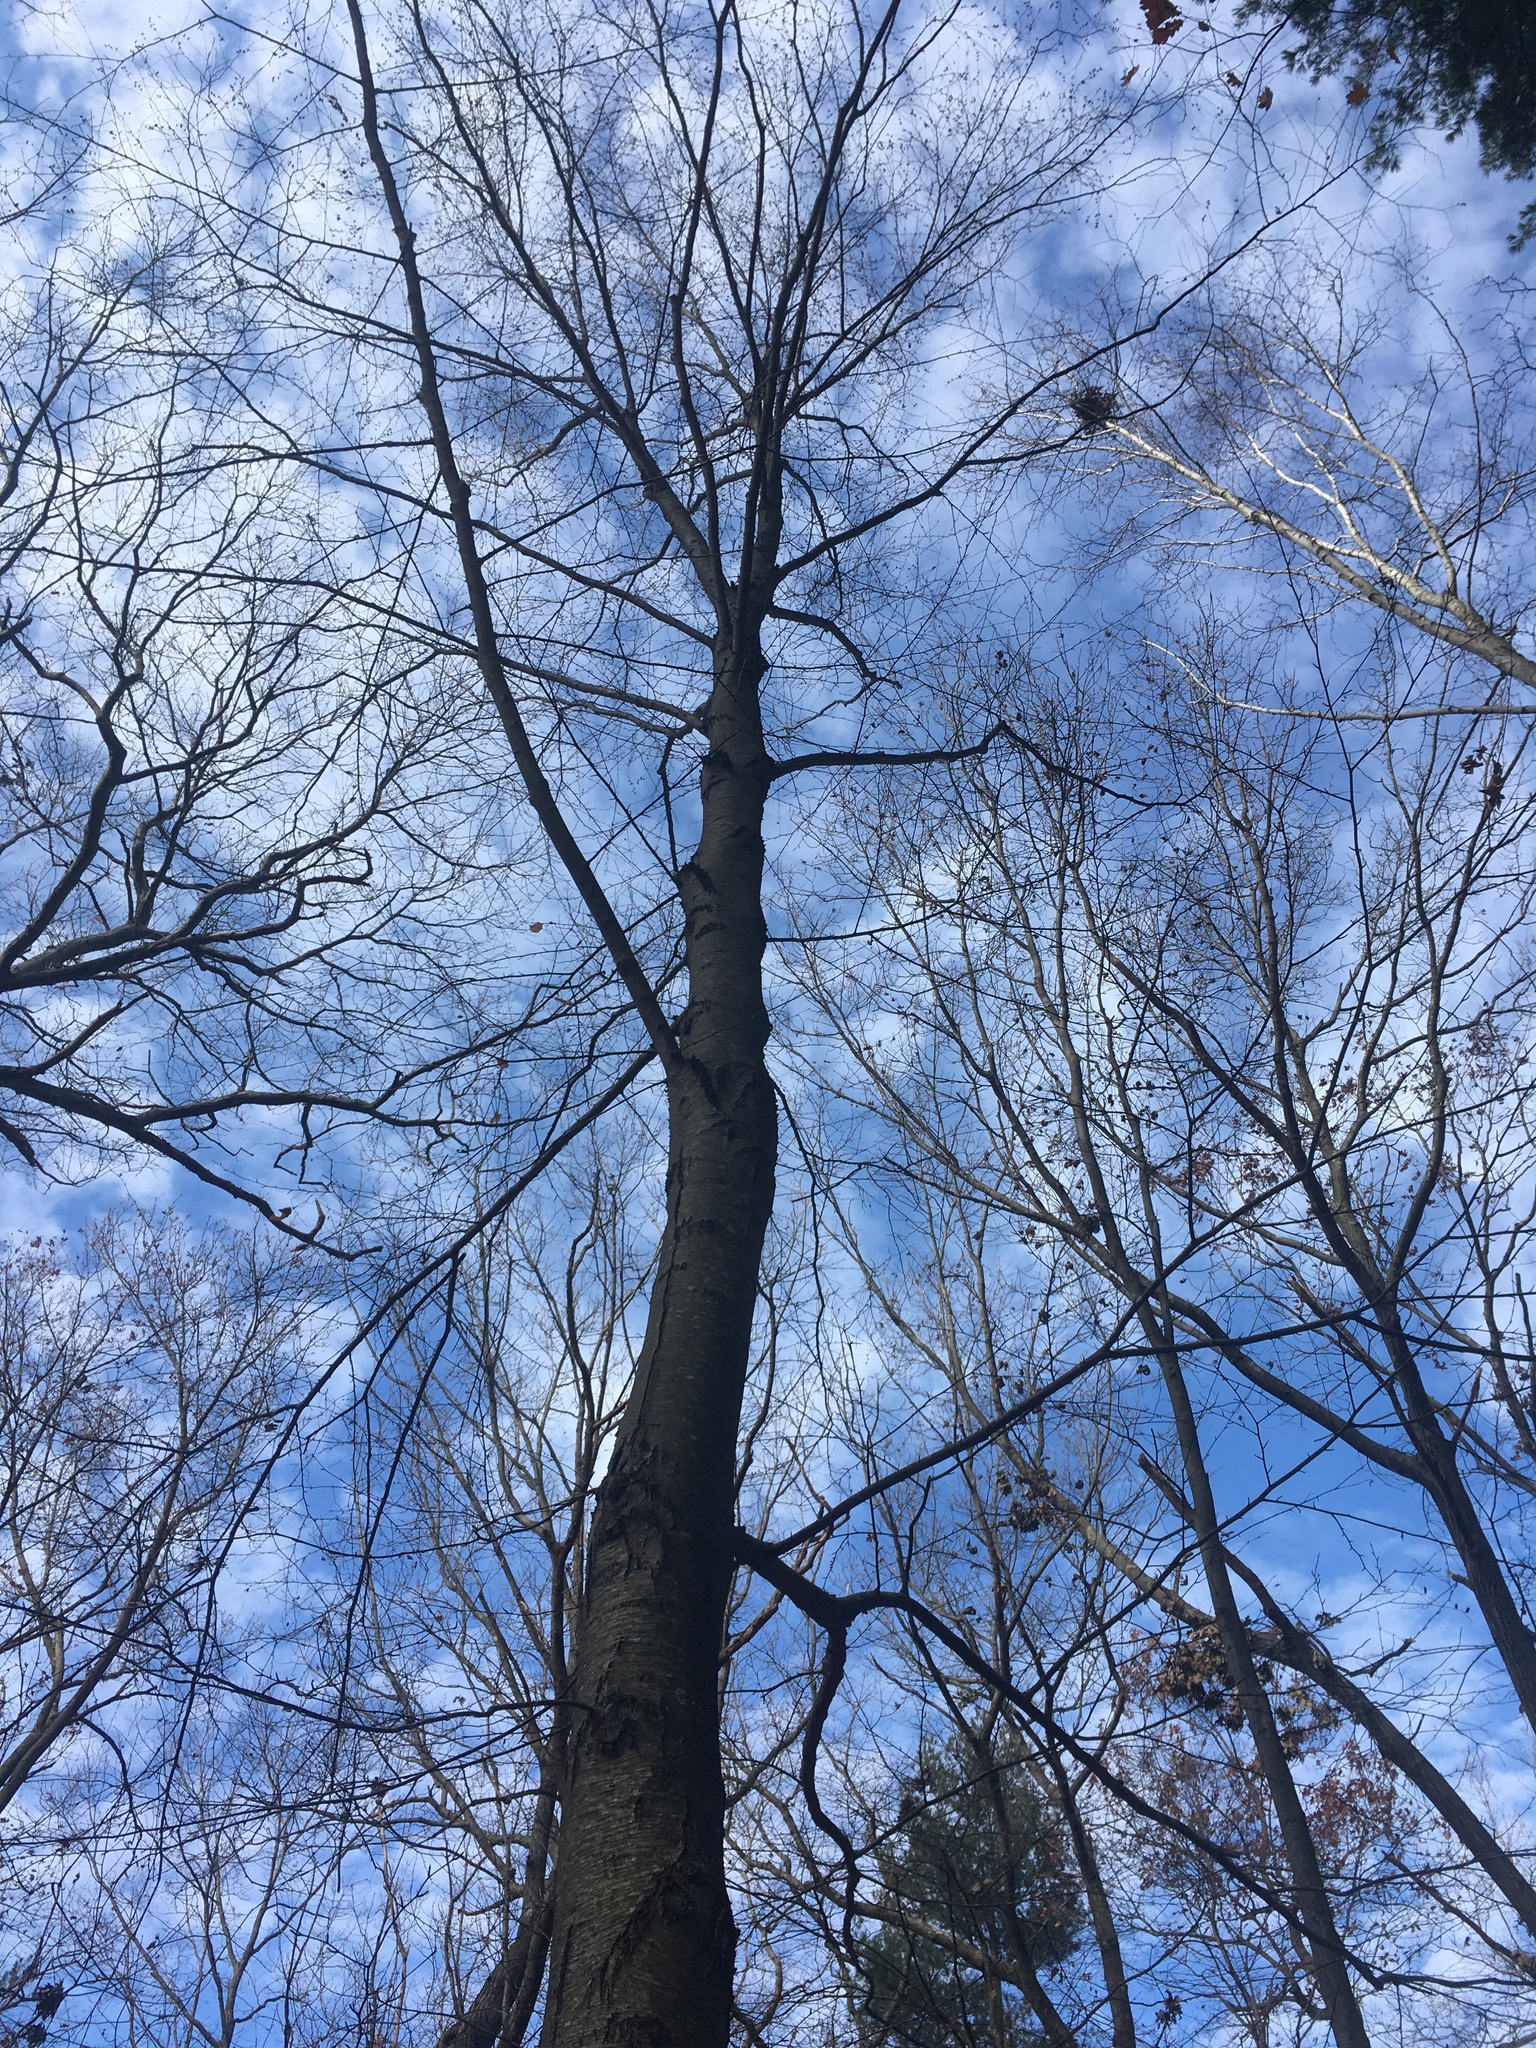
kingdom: Plantae
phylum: Tracheophyta
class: Magnoliopsida
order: Fagales
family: Betulaceae
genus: Betula
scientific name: Betula lenta
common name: Black birch
